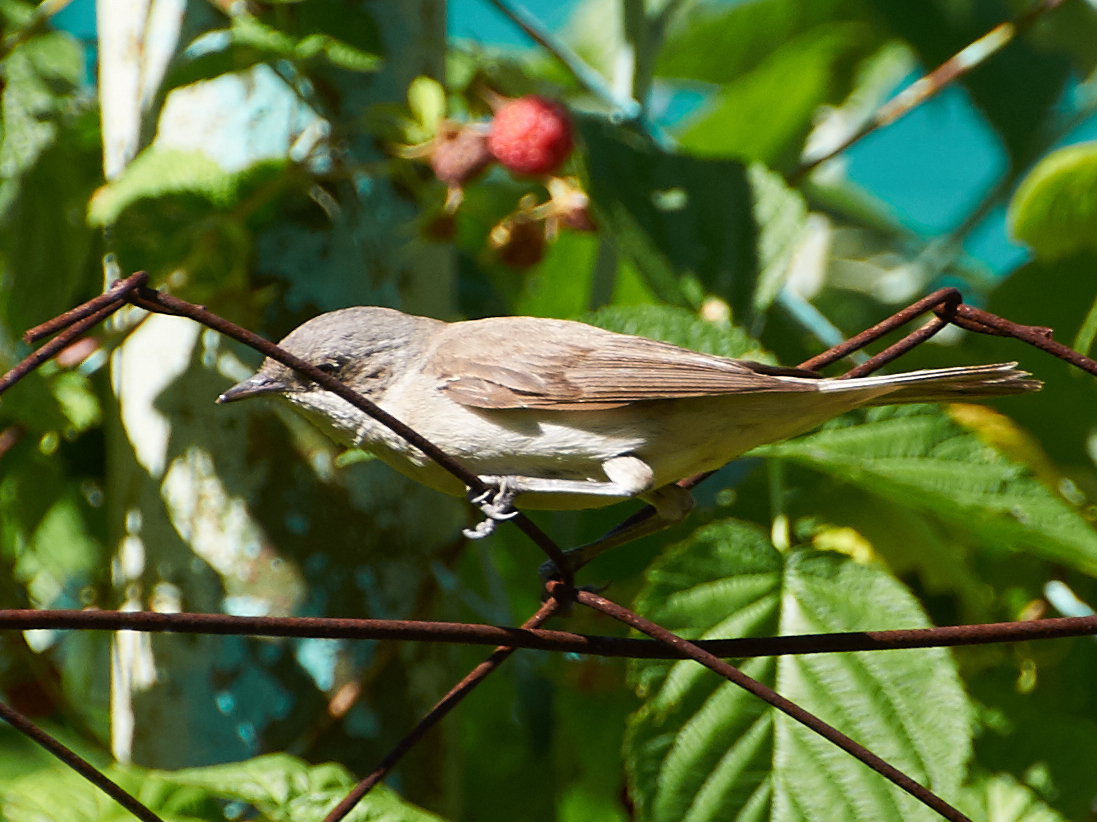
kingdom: Animalia
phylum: Chordata
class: Aves
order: Passeriformes
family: Sylviidae
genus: Sylvia
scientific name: Sylvia curruca
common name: Lesser whitethroat
